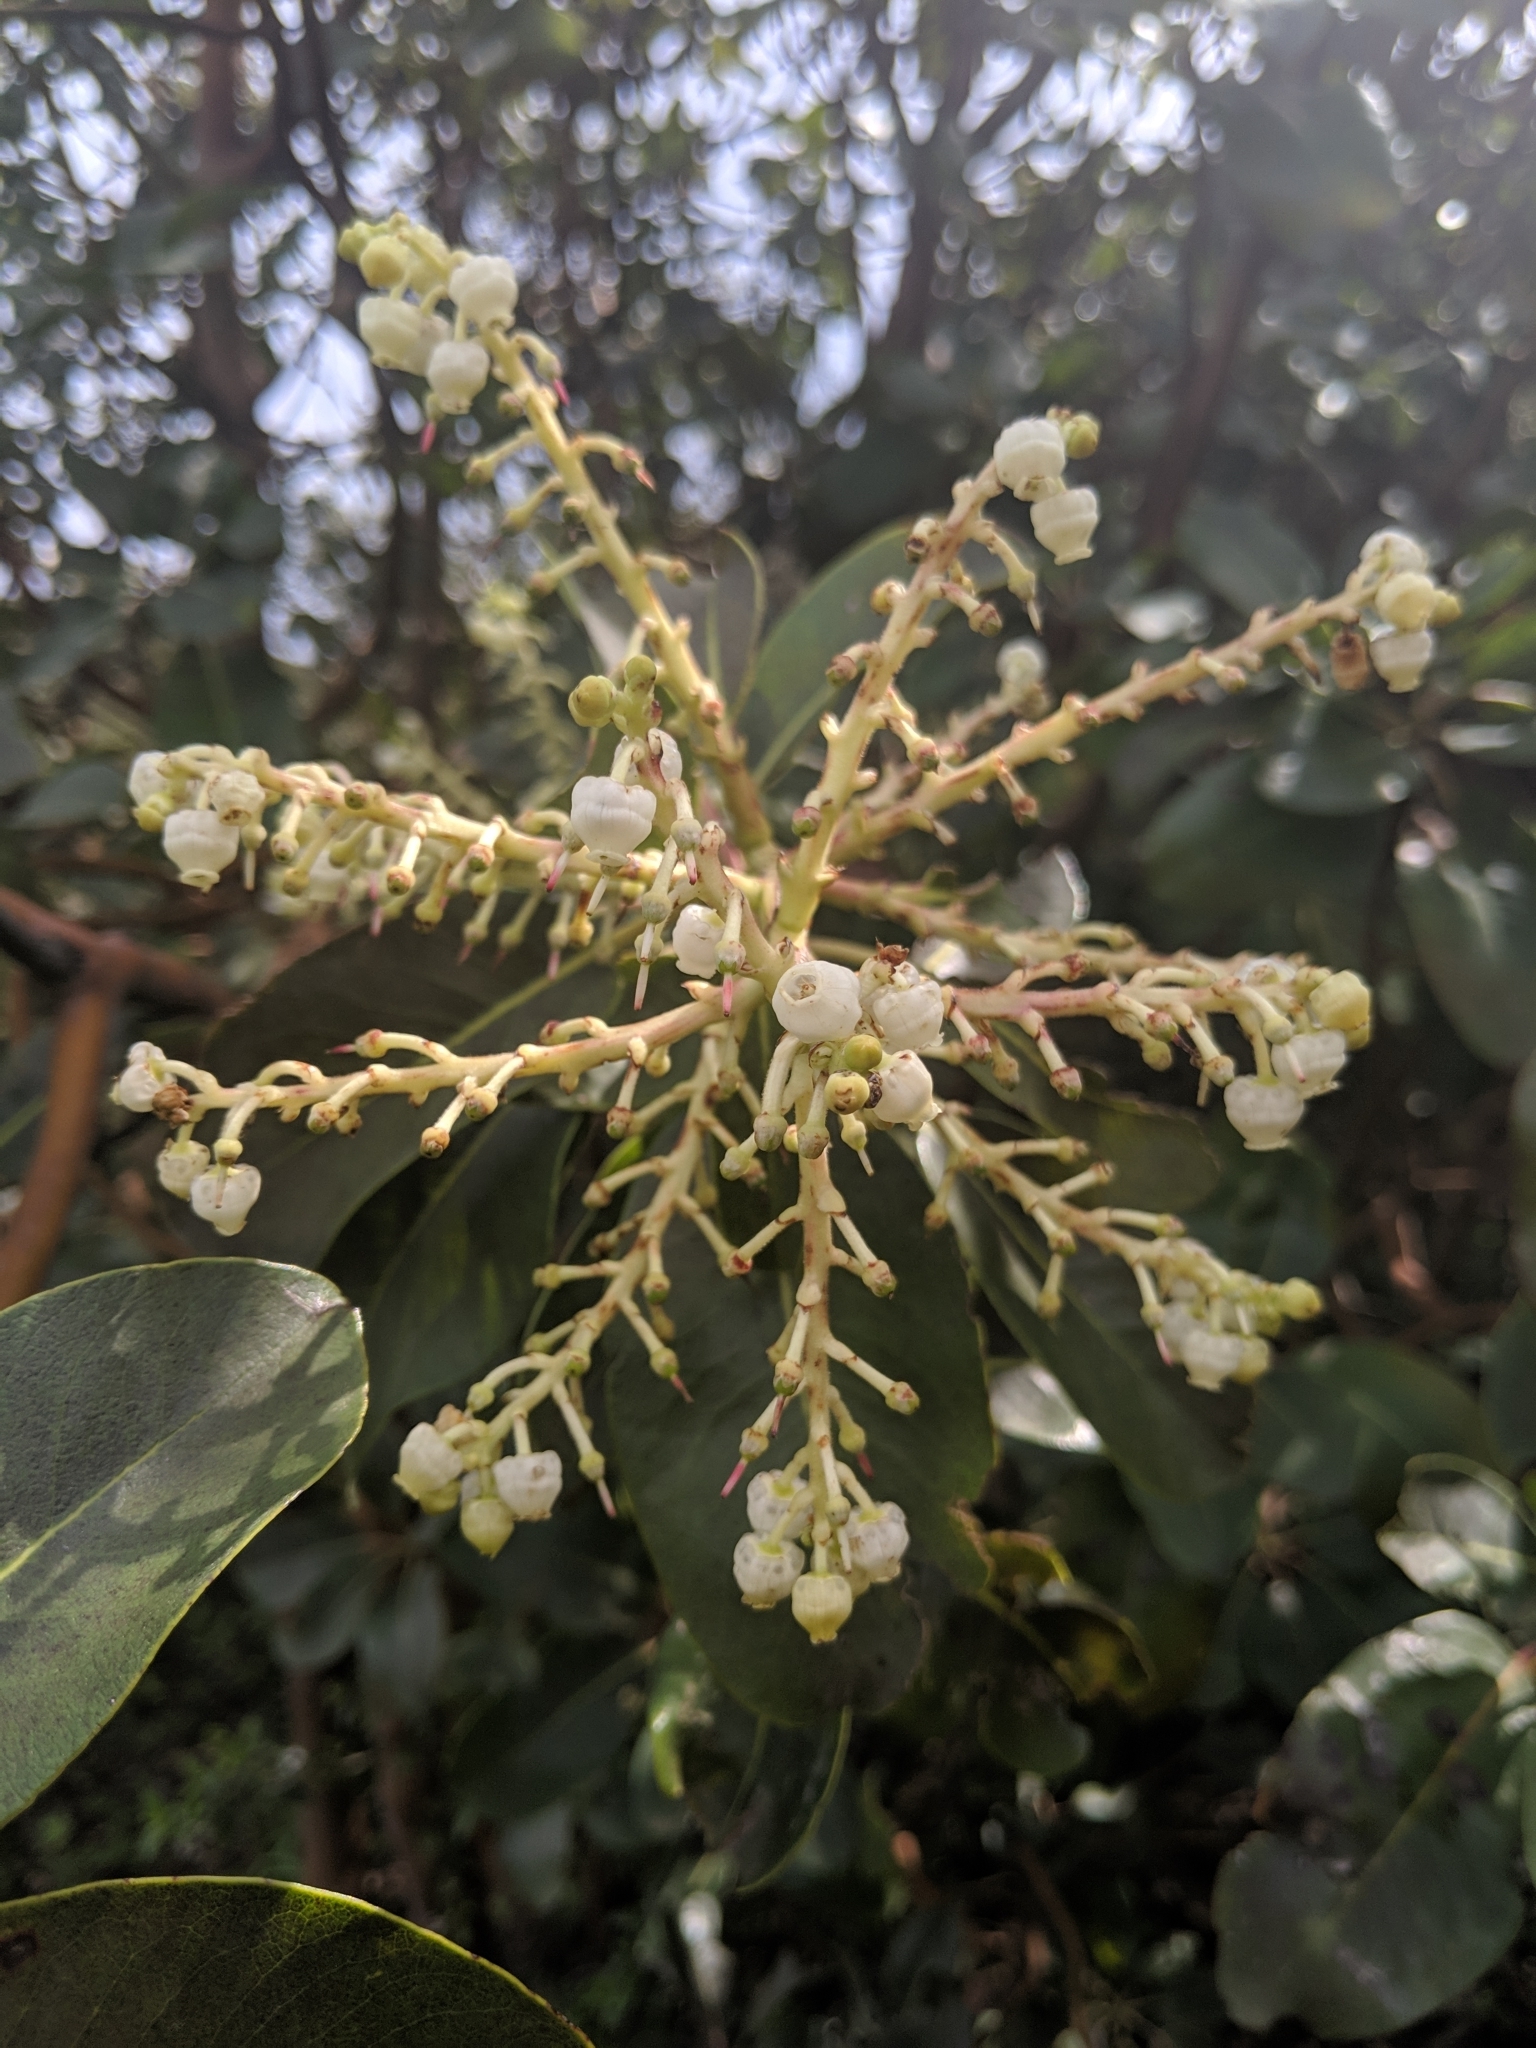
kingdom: Plantae
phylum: Tracheophyta
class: Magnoliopsida
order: Ericales
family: Ericaceae
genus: Arbutus
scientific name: Arbutus menziesii
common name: Pacific madrone
